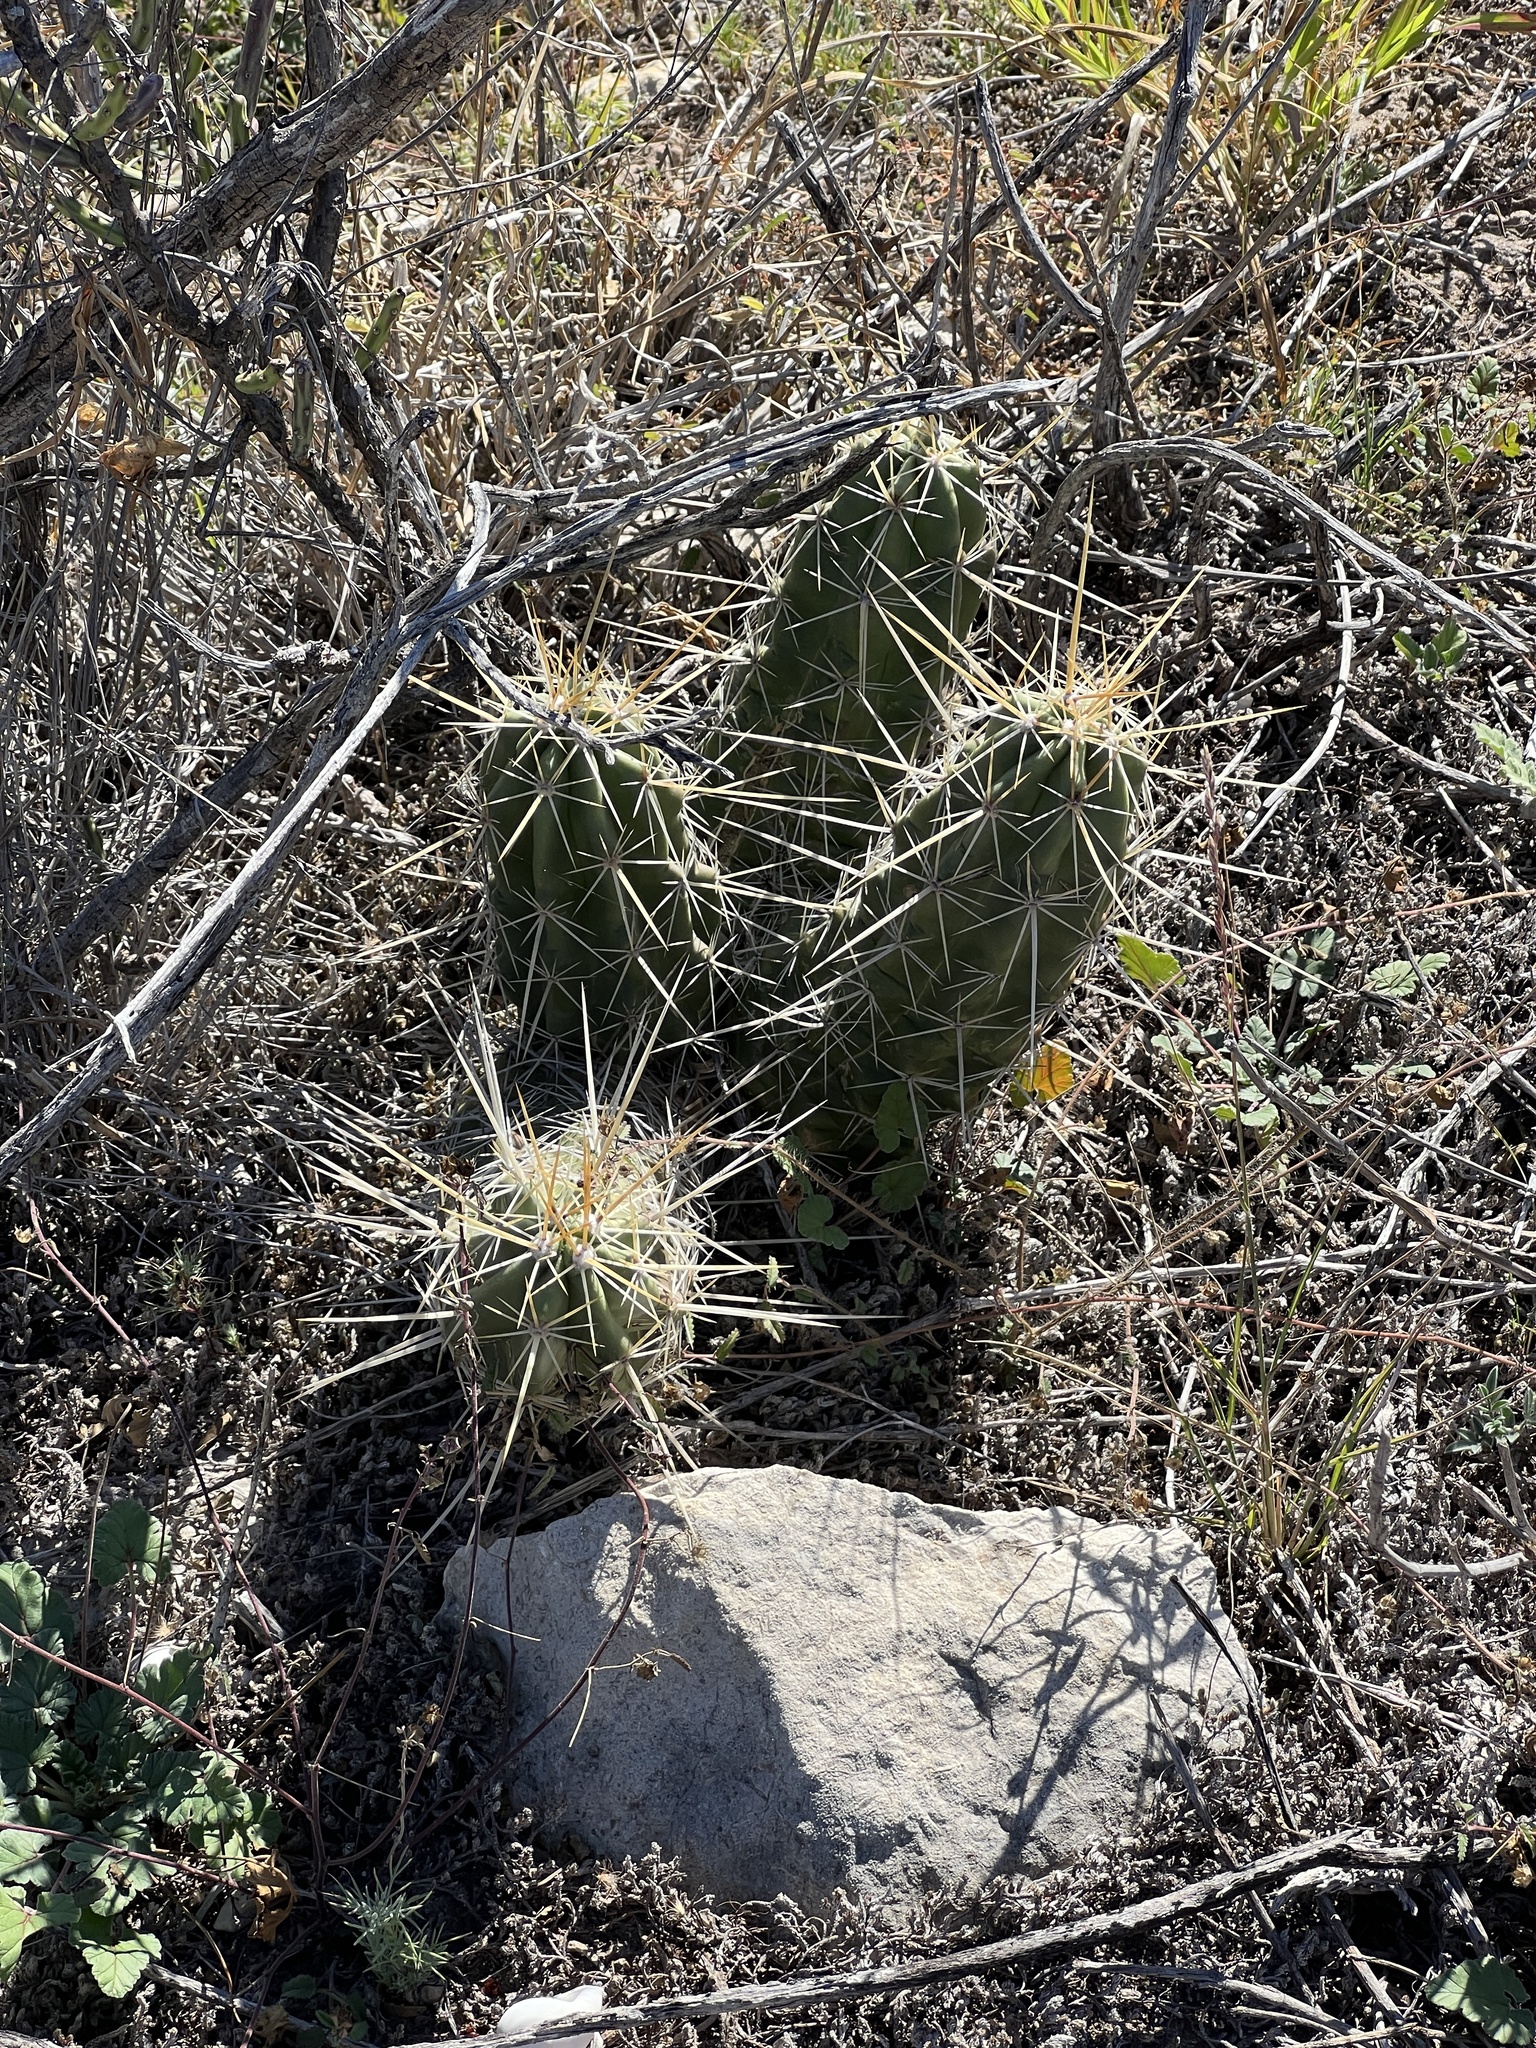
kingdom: Plantae
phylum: Tracheophyta
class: Magnoliopsida
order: Caryophyllales
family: Cactaceae
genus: Echinocereus
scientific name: Echinocereus enneacanthus
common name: Pitaya
